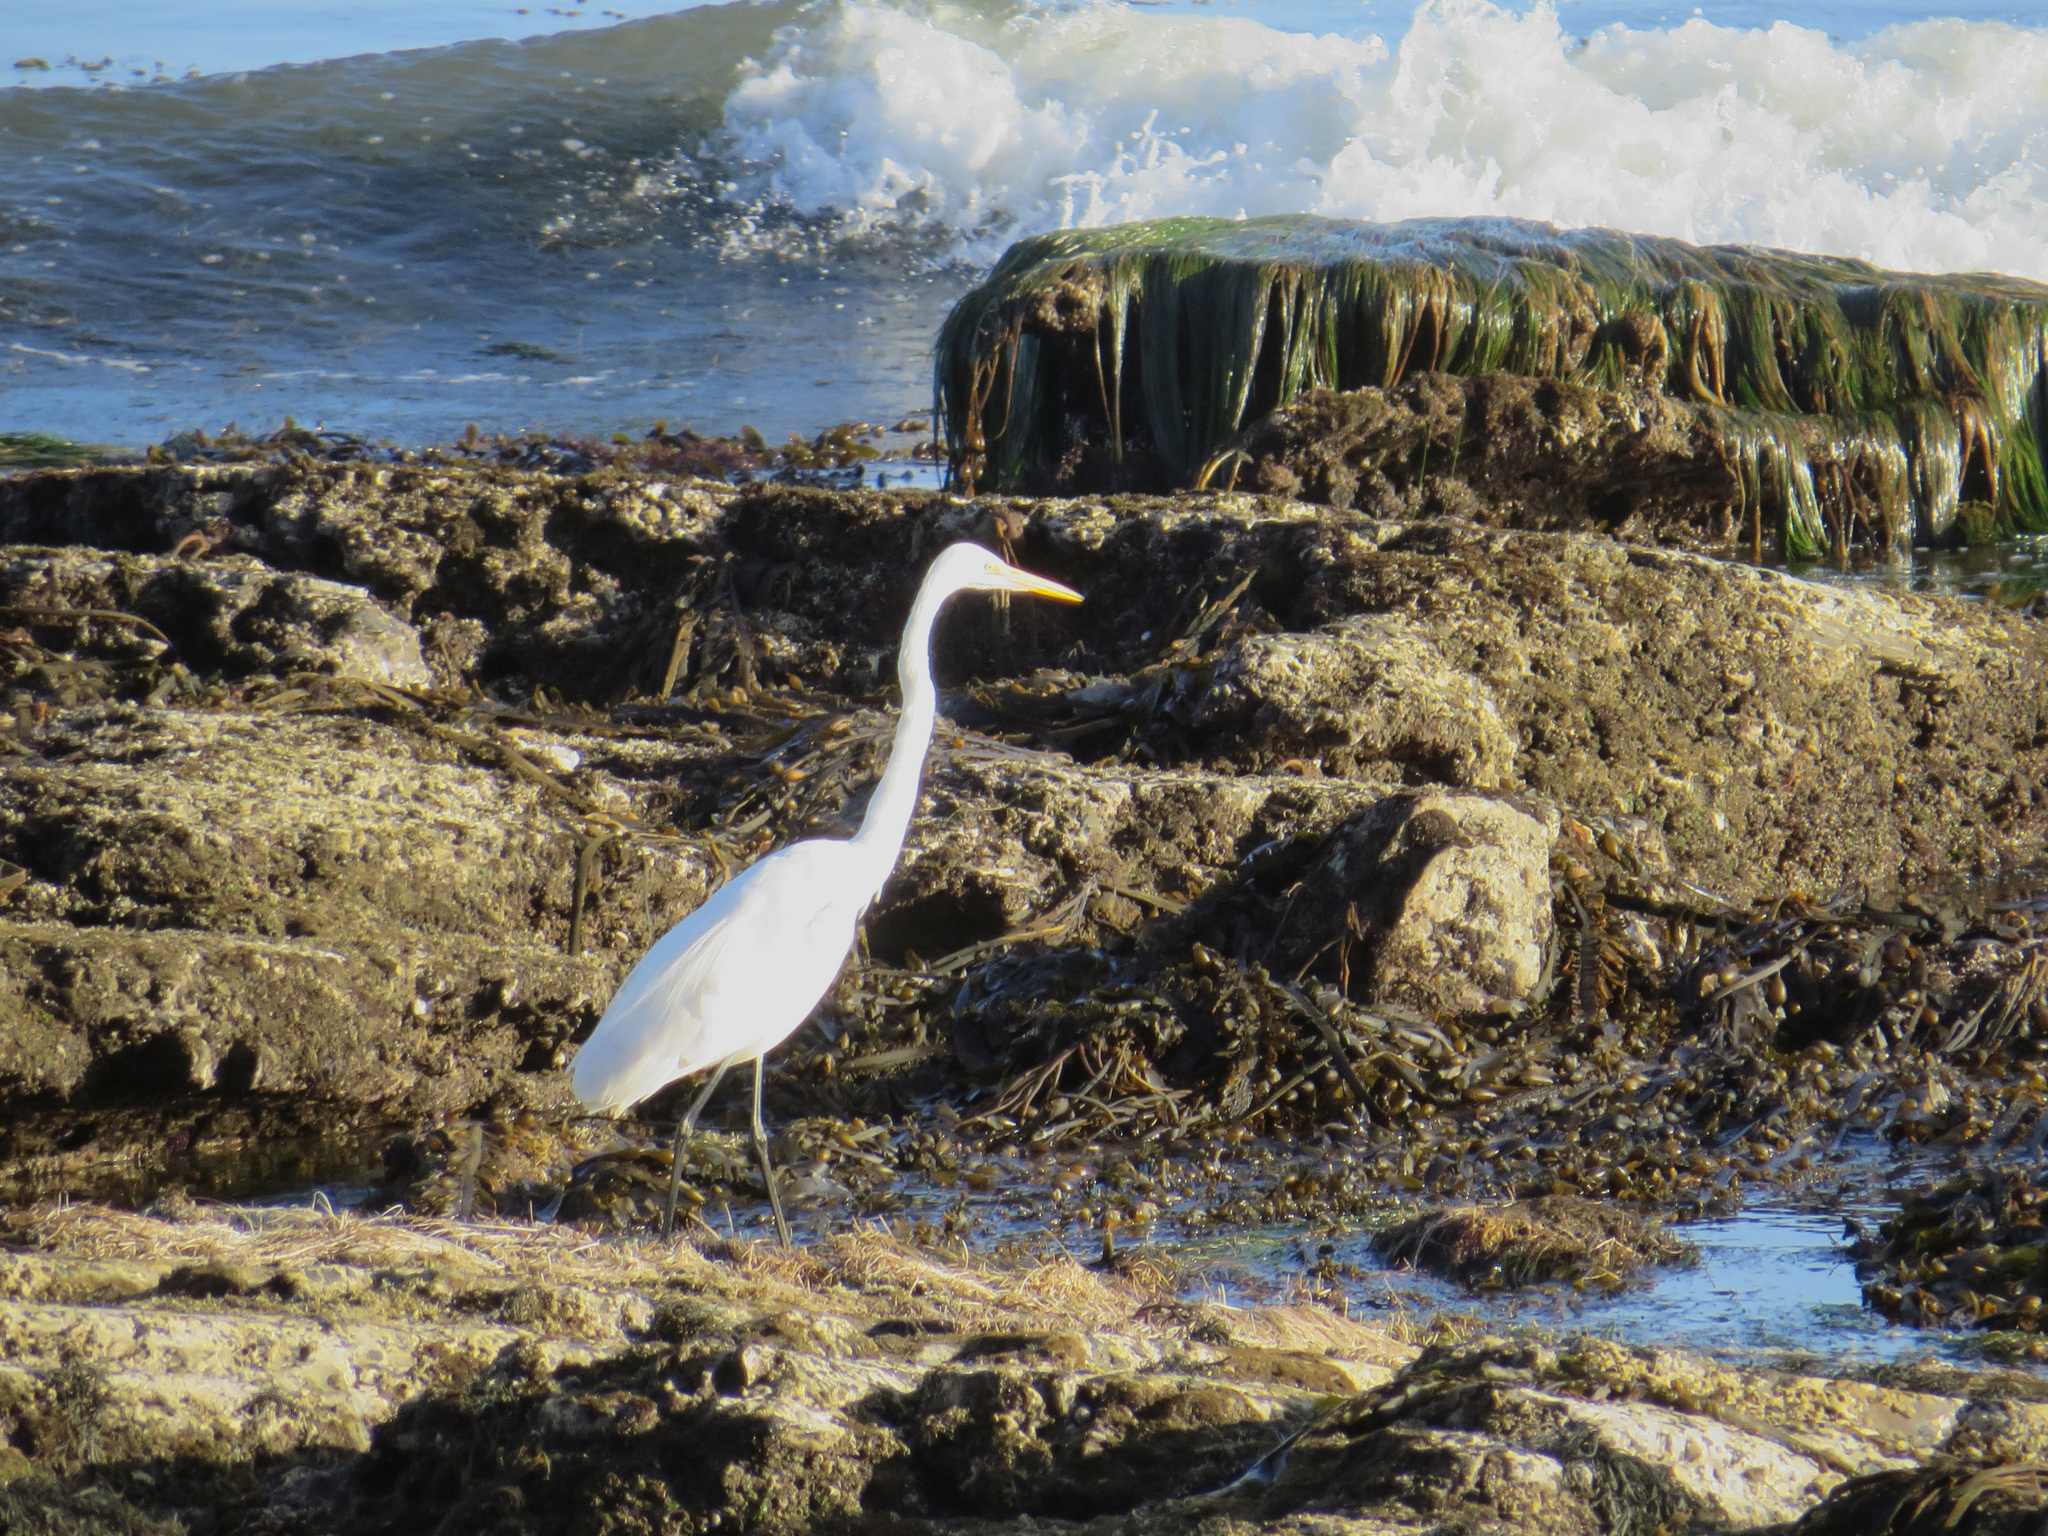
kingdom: Animalia
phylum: Chordata
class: Aves
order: Pelecaniformes
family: Ardeidae
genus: Ardea
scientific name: Ardea alba
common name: Great egret
